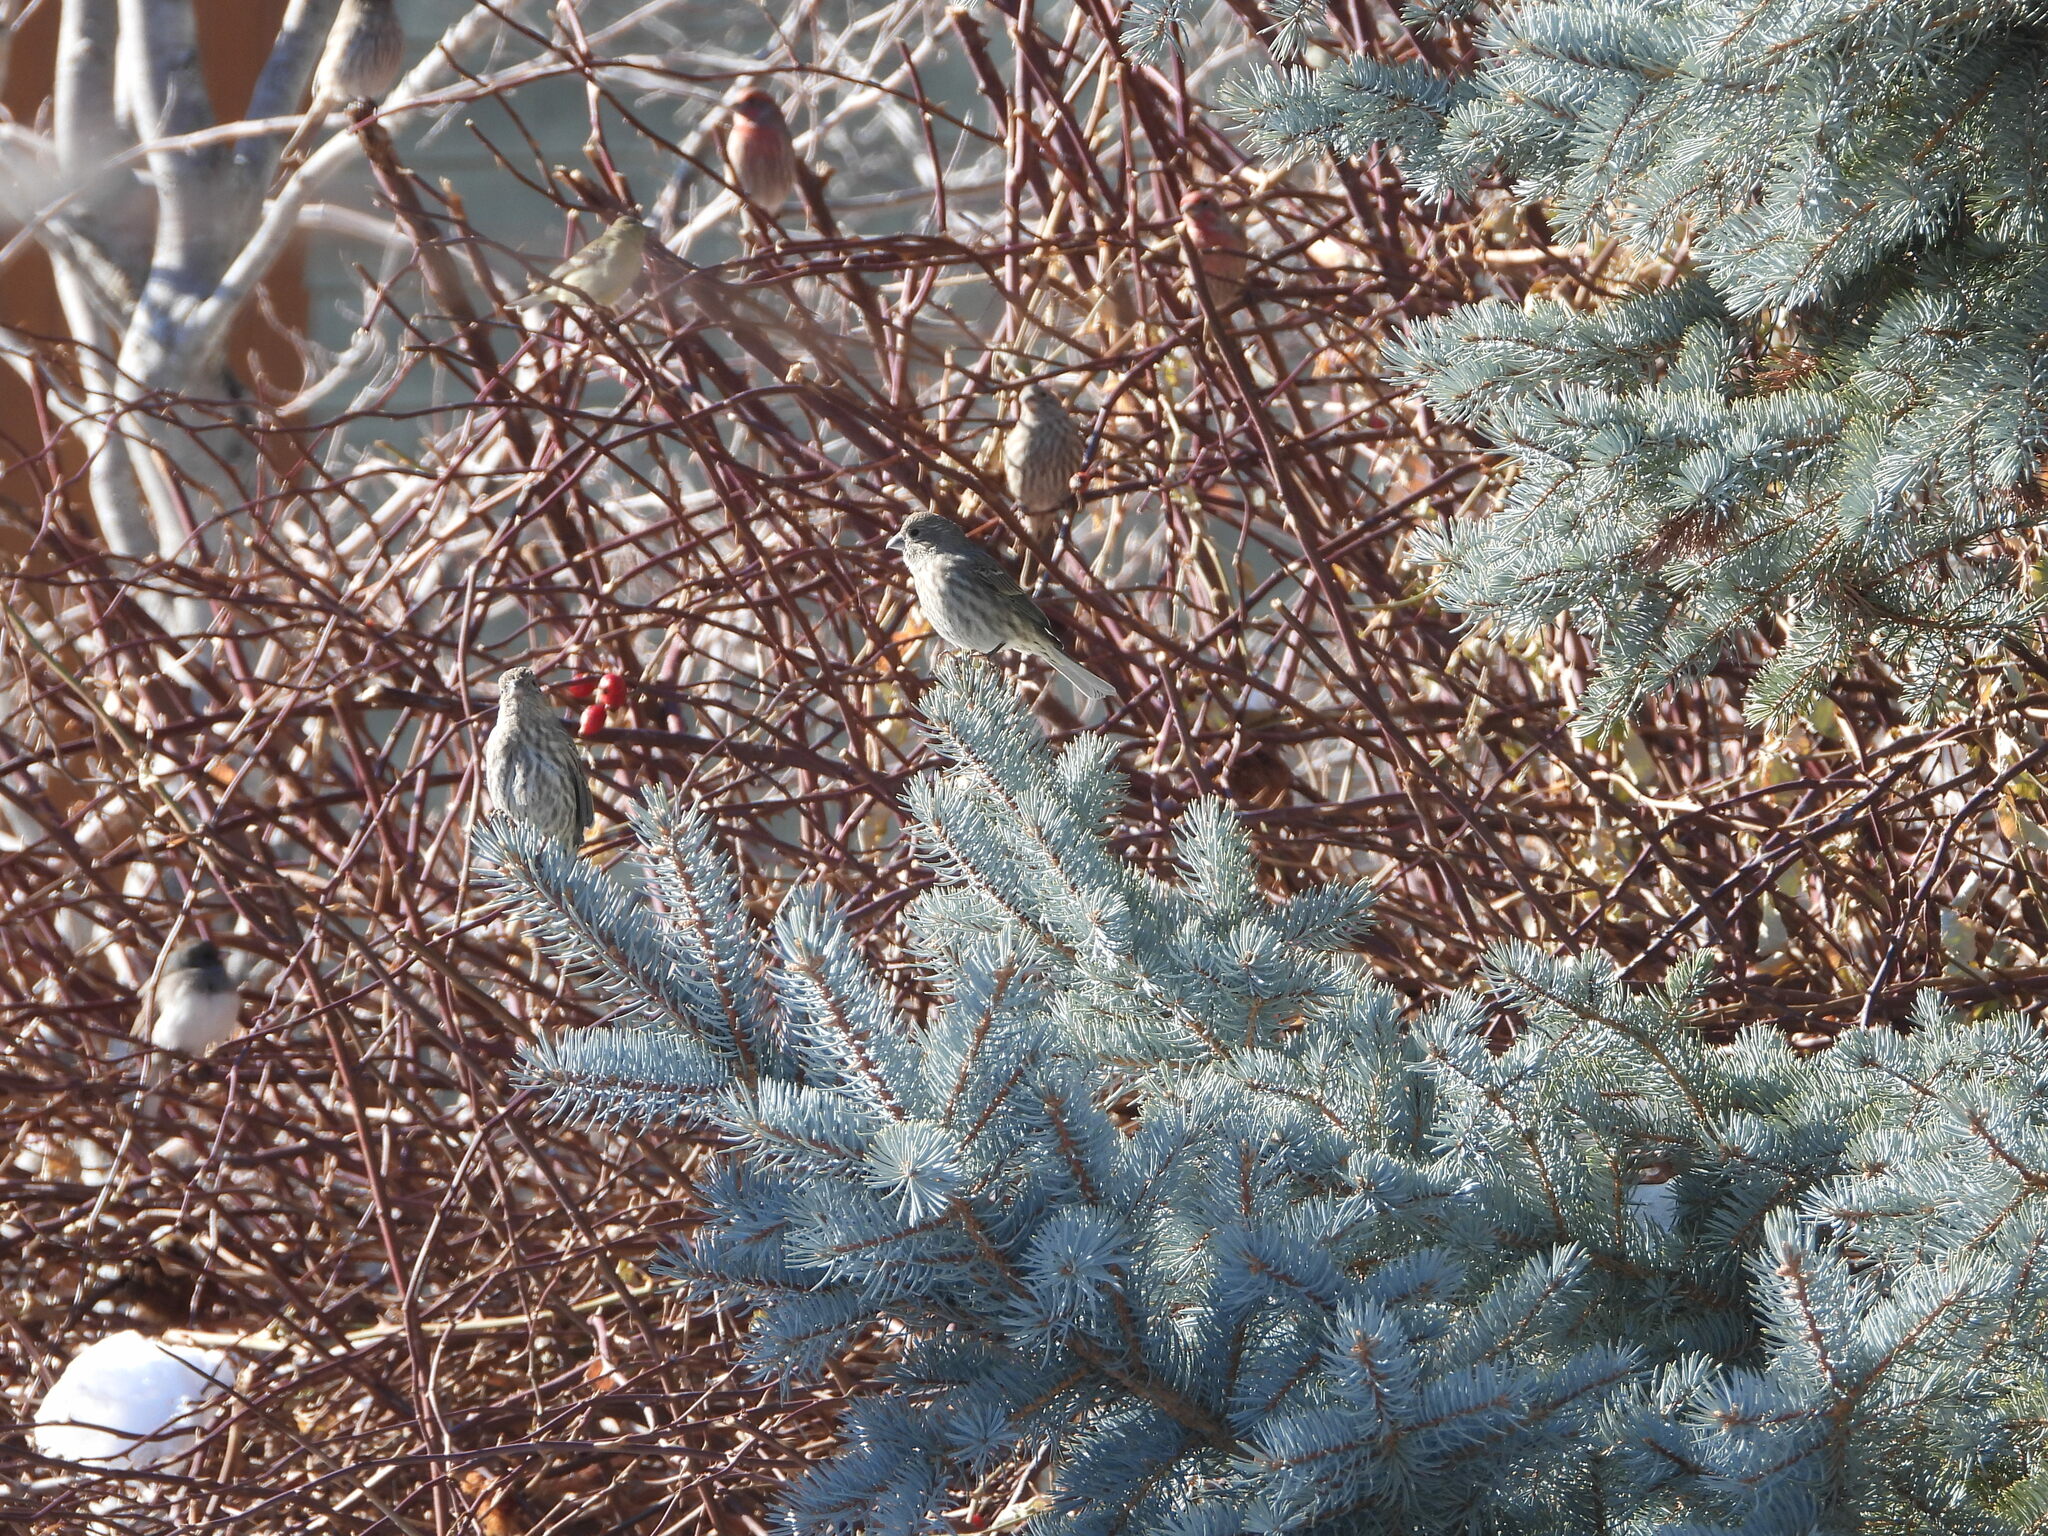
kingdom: Animalia
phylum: Chordata
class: Aves
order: Passeriformes
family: Fringillidae
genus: Haemorhous
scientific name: Haemorhous mexicanus
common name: House finch
